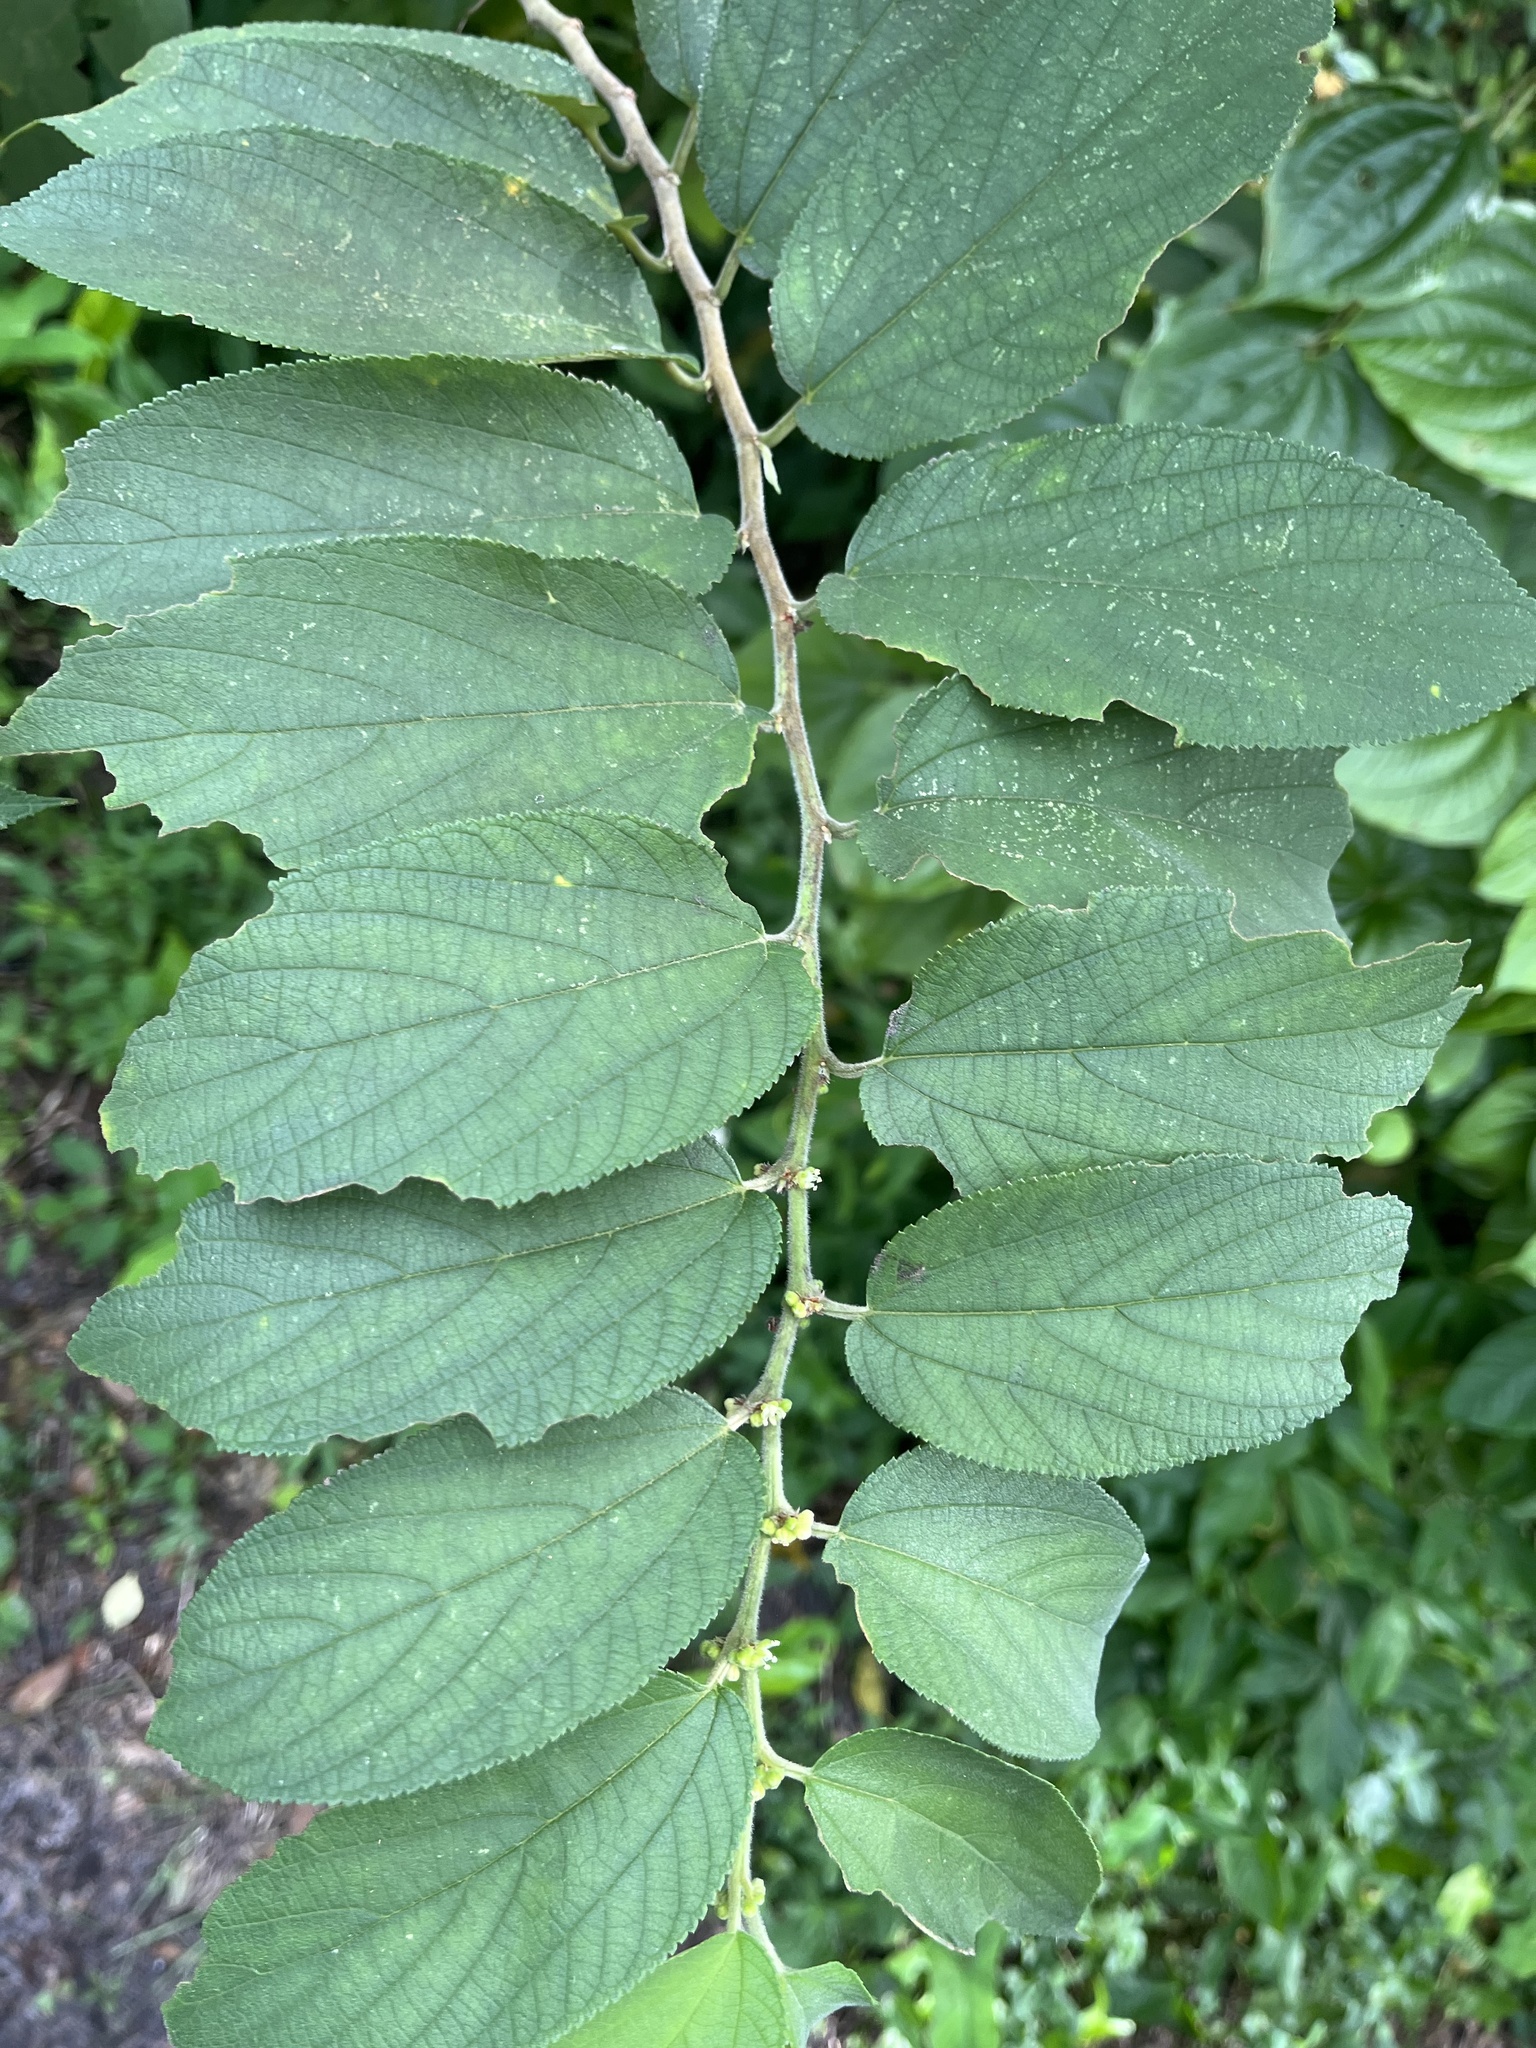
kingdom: Plantae
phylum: Tracheophyta
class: Magnoliopsida
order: Rosales
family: Cannabaceae
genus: Trema
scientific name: Trema micranthum
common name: Jamaican nettletree
